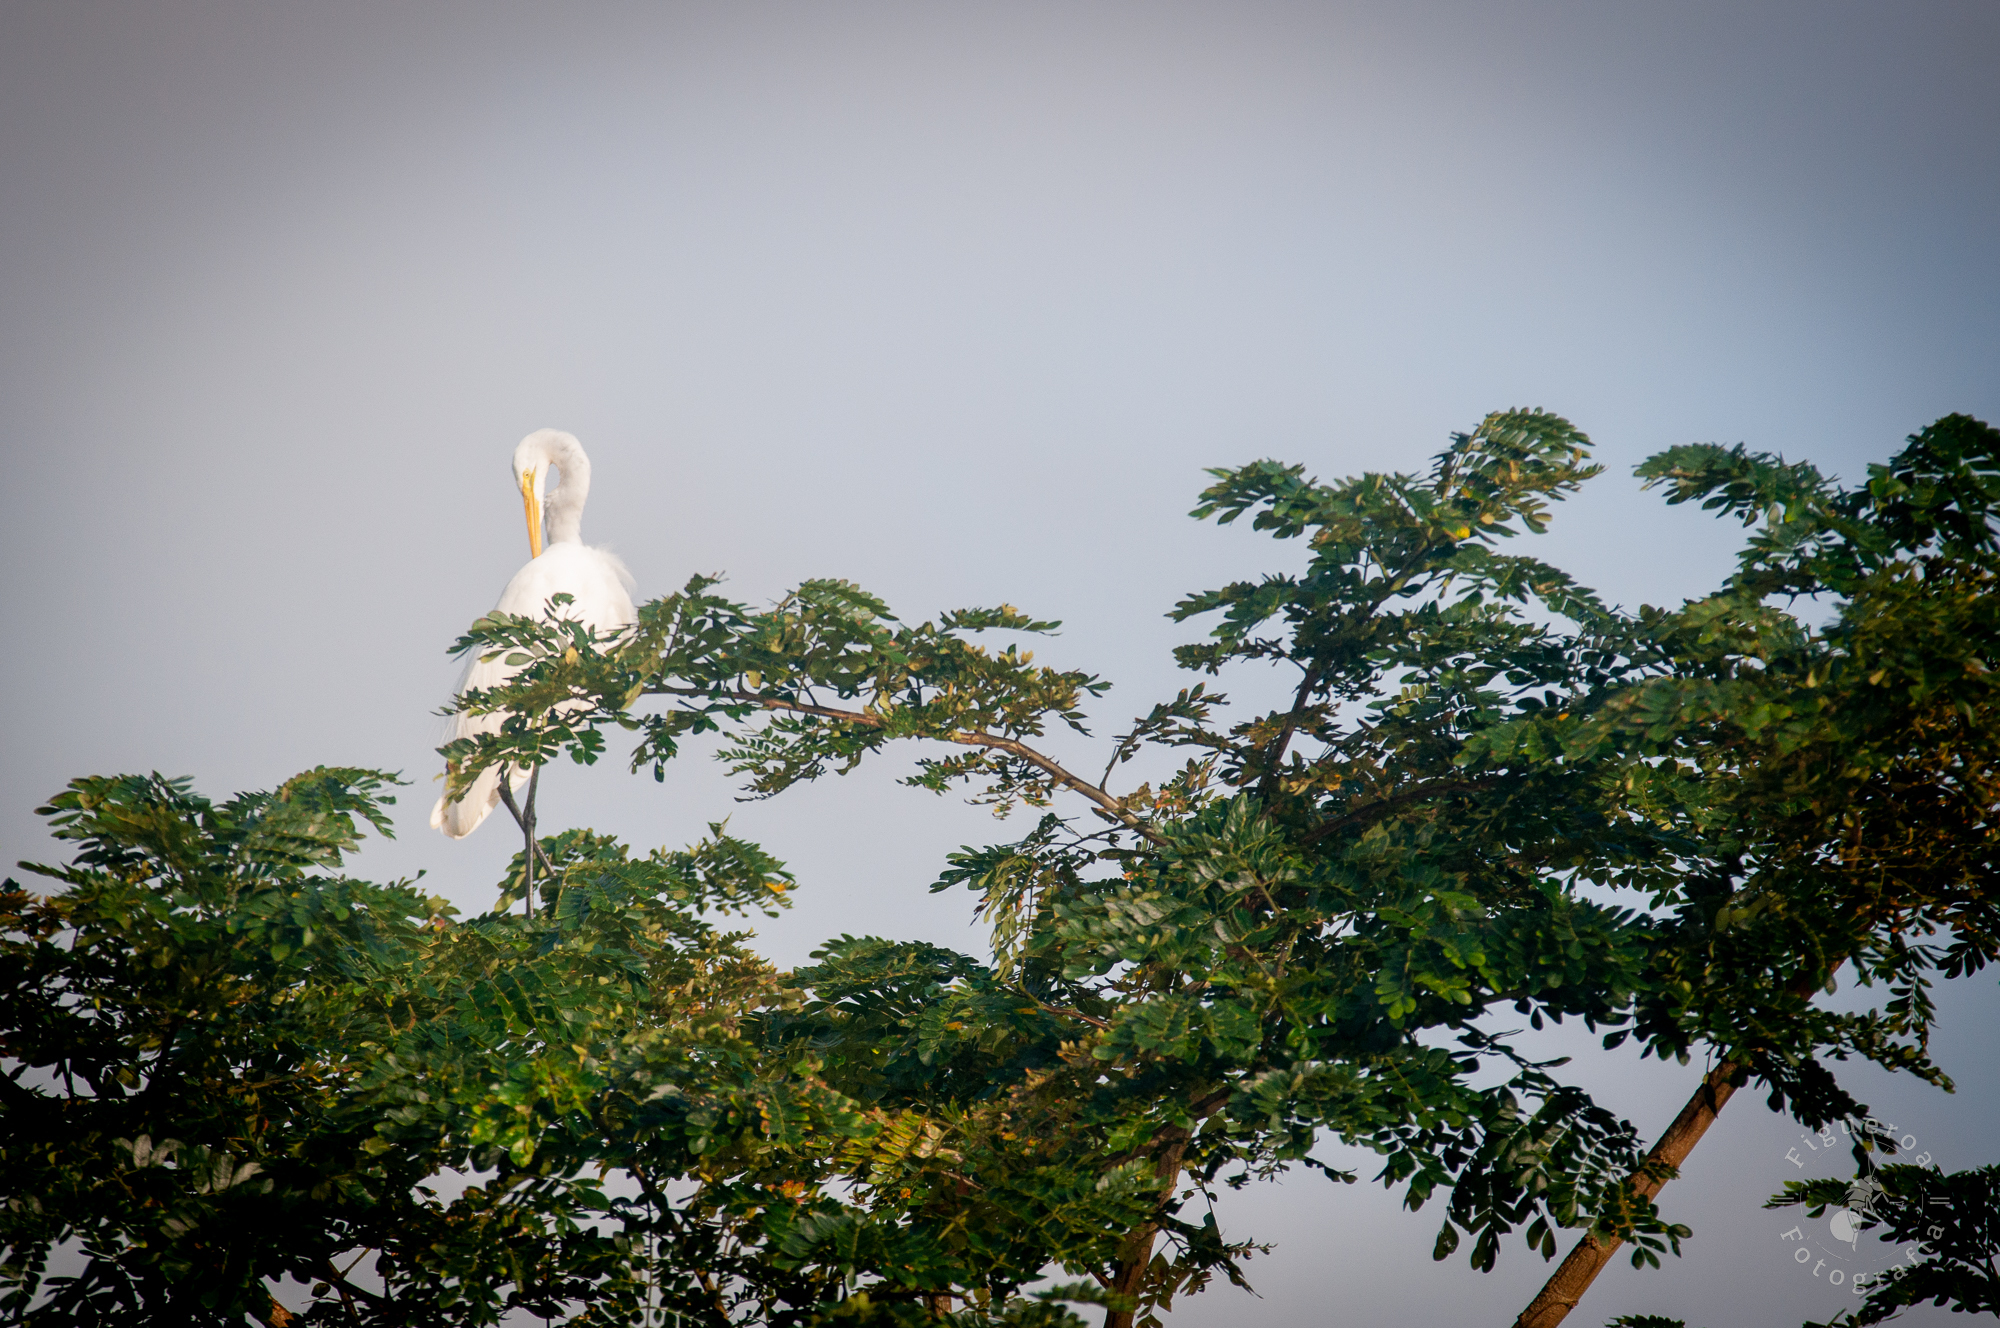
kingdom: Animalia
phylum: Chordata
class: Aves
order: Pelecaniformes
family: Ardeidae
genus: Ardea
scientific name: Ardea alba
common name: Great egret
